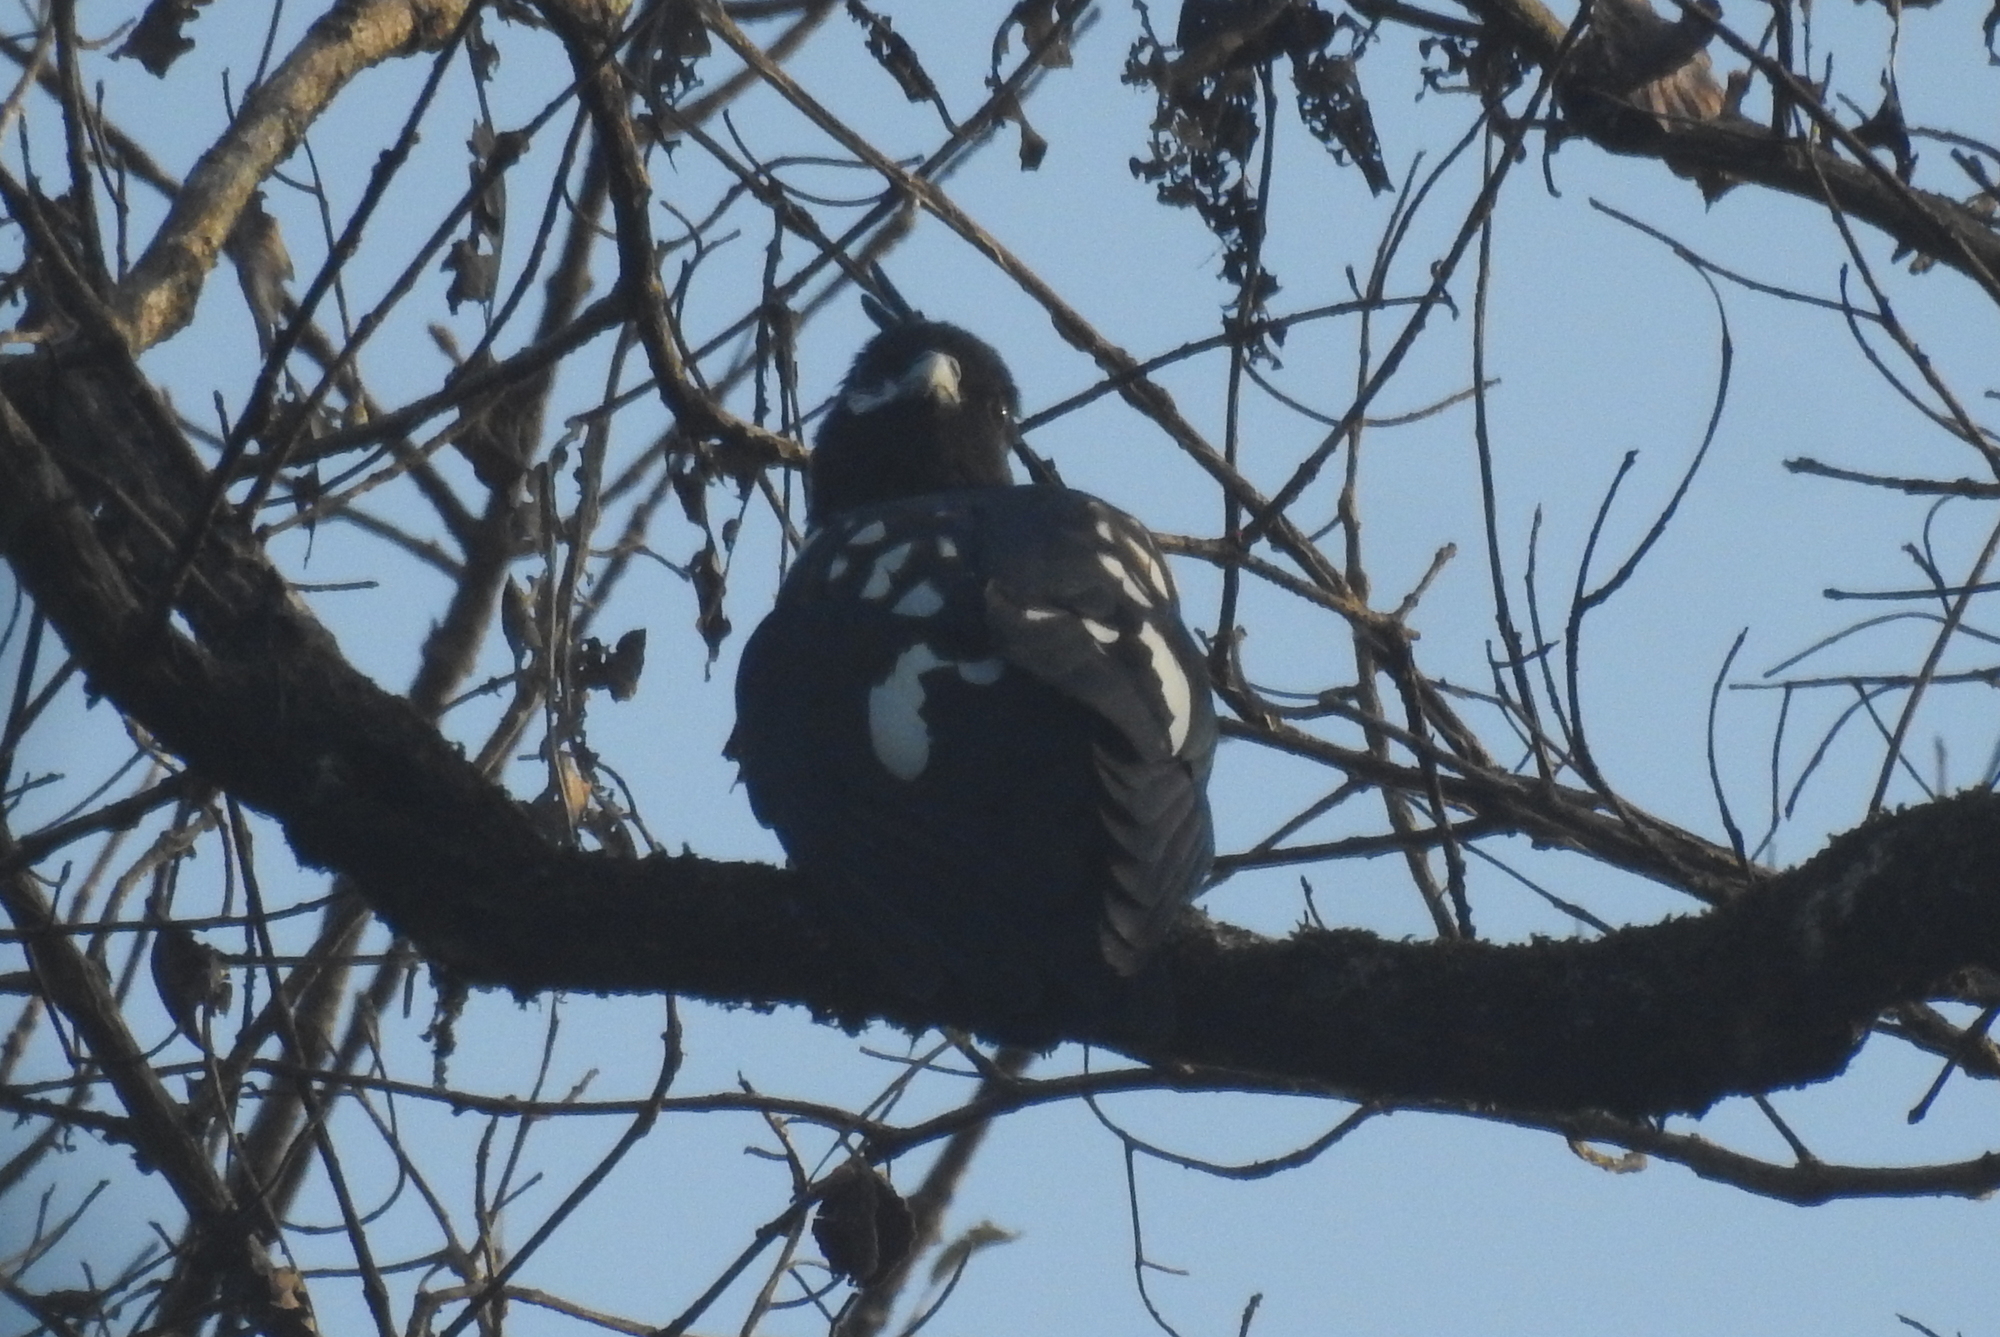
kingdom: Animalia
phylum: Chordata
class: Aves
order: Accipitriformes
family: Accipitridae
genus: Aviceda
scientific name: Aviceda leuphotes
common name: Black baza
